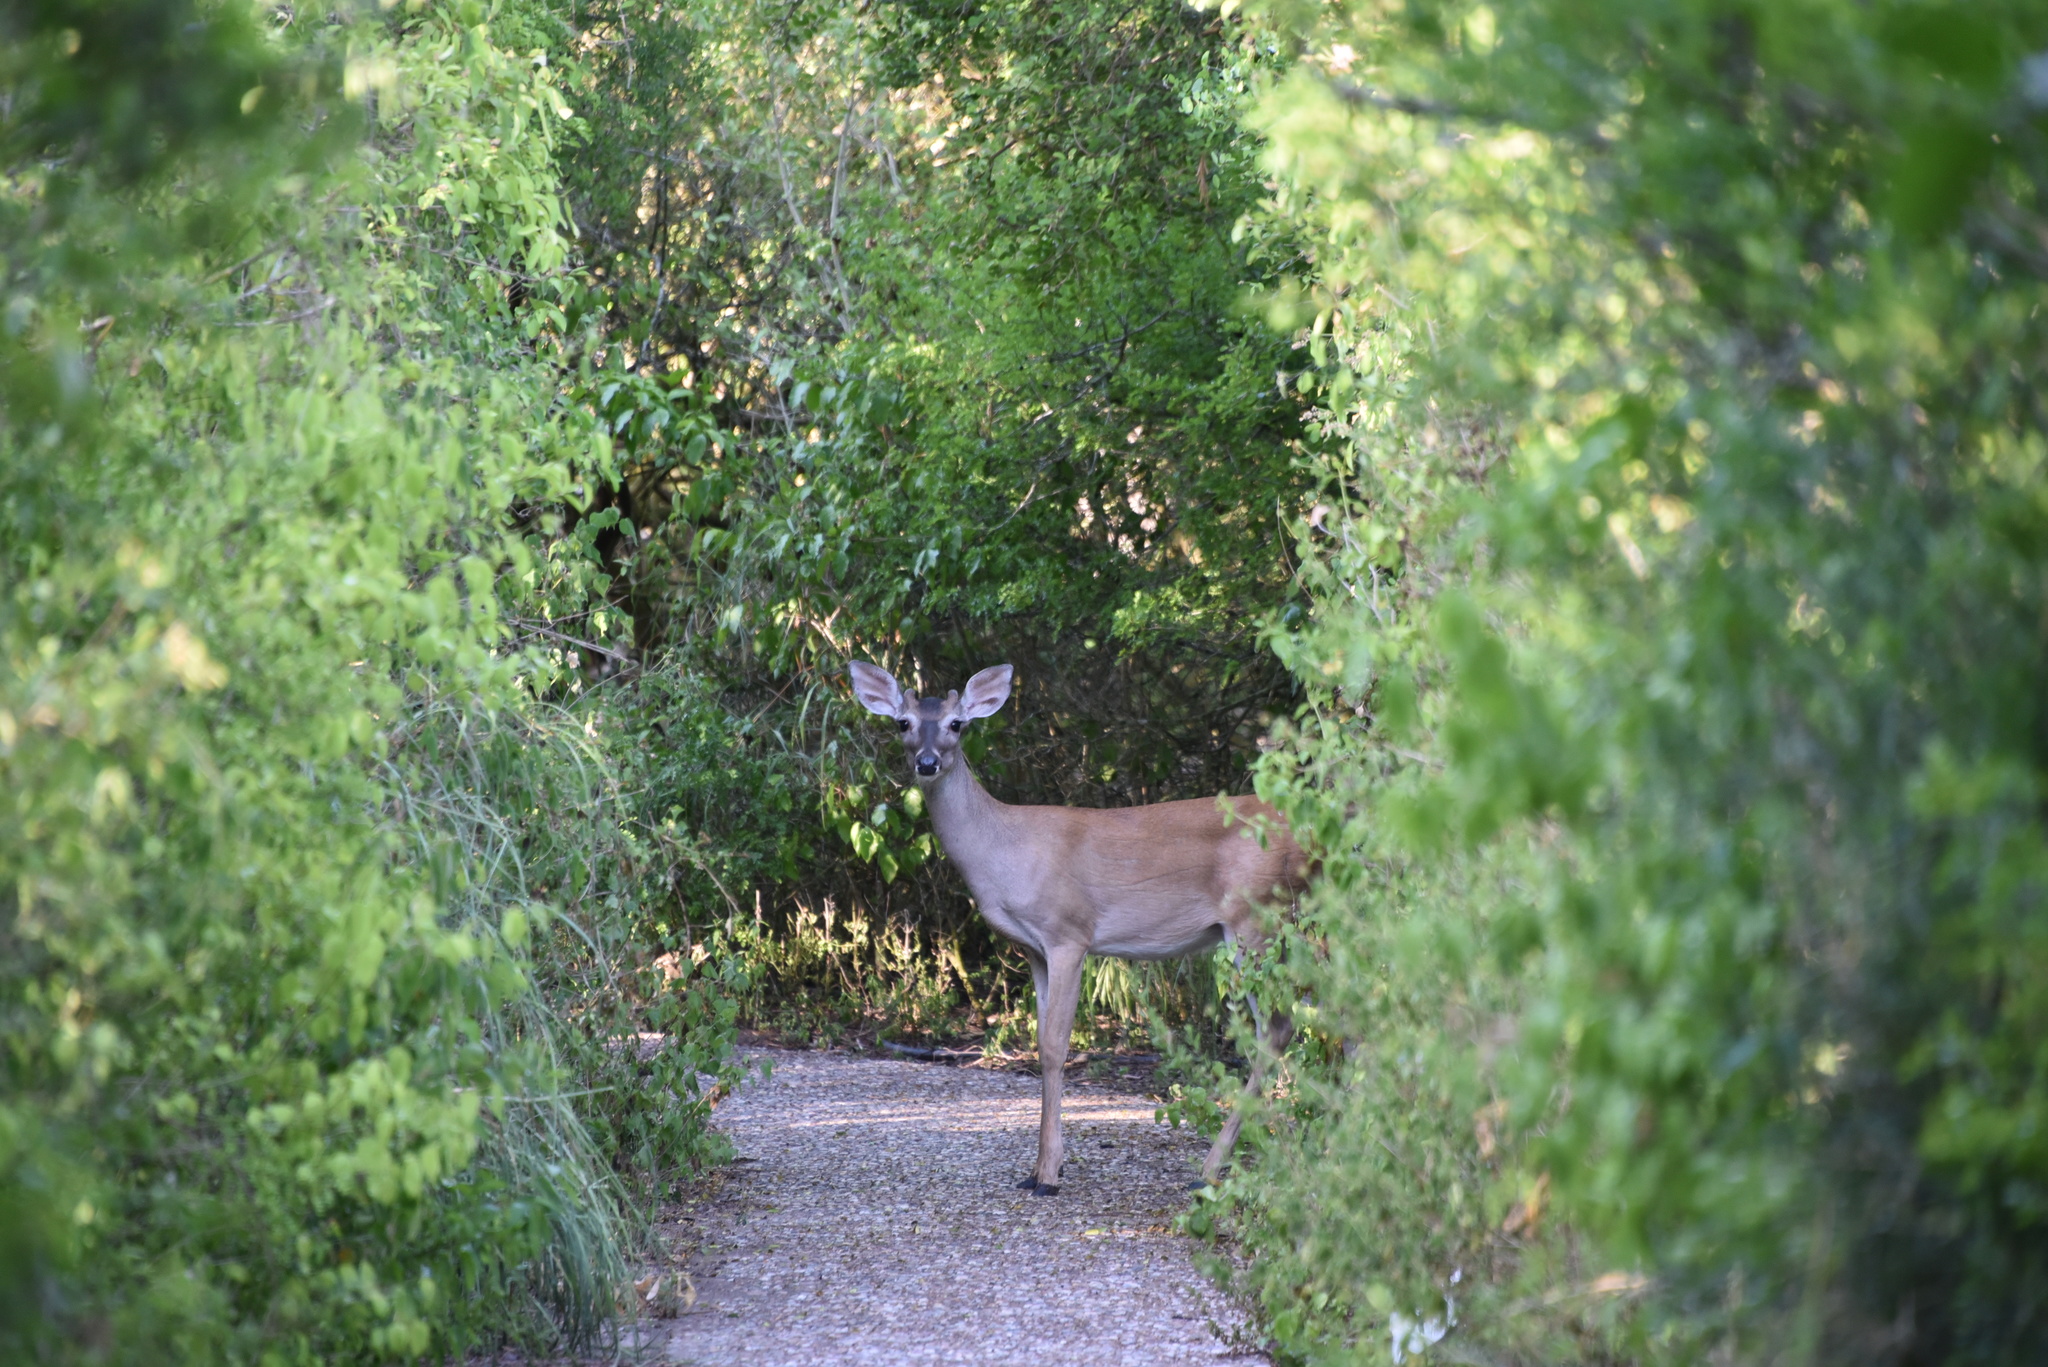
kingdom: Animalia
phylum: Chordata
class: Mammalia
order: Artiodactyla
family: Cervidae
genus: Odocoileus
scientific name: Odocoileus virginianus
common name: White-tailed deer
